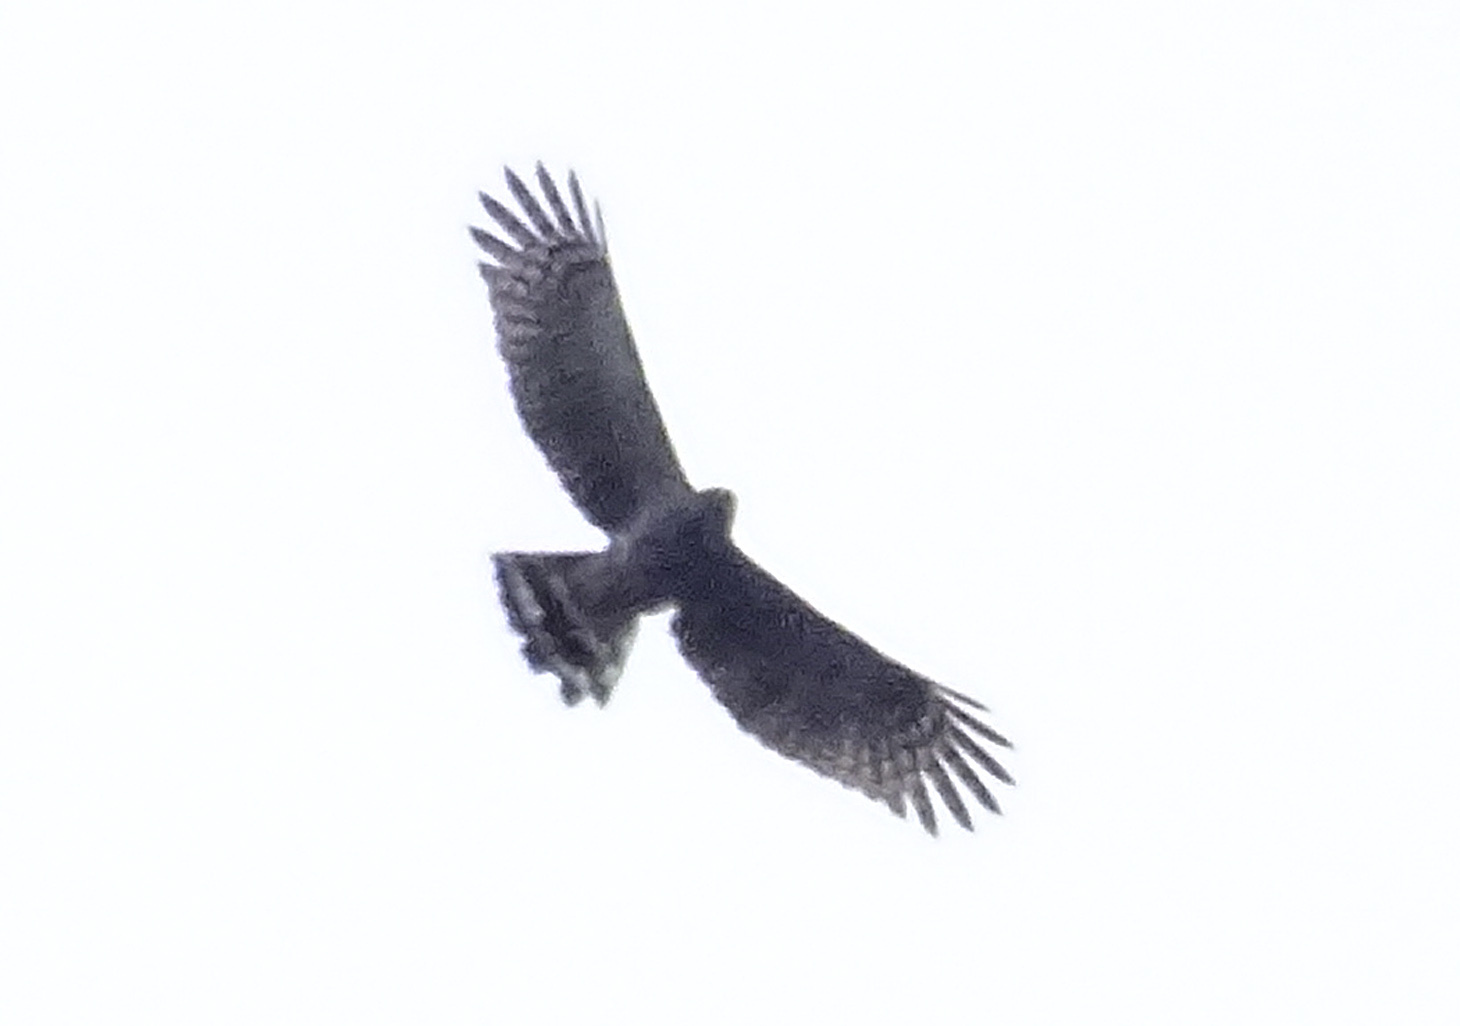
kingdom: Animalia
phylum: Chordata
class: Aves
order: Accipitriformes
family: Accipitridae
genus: Chondrohierax
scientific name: Chondrohierax uncinatus
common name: Hook-billed kite
